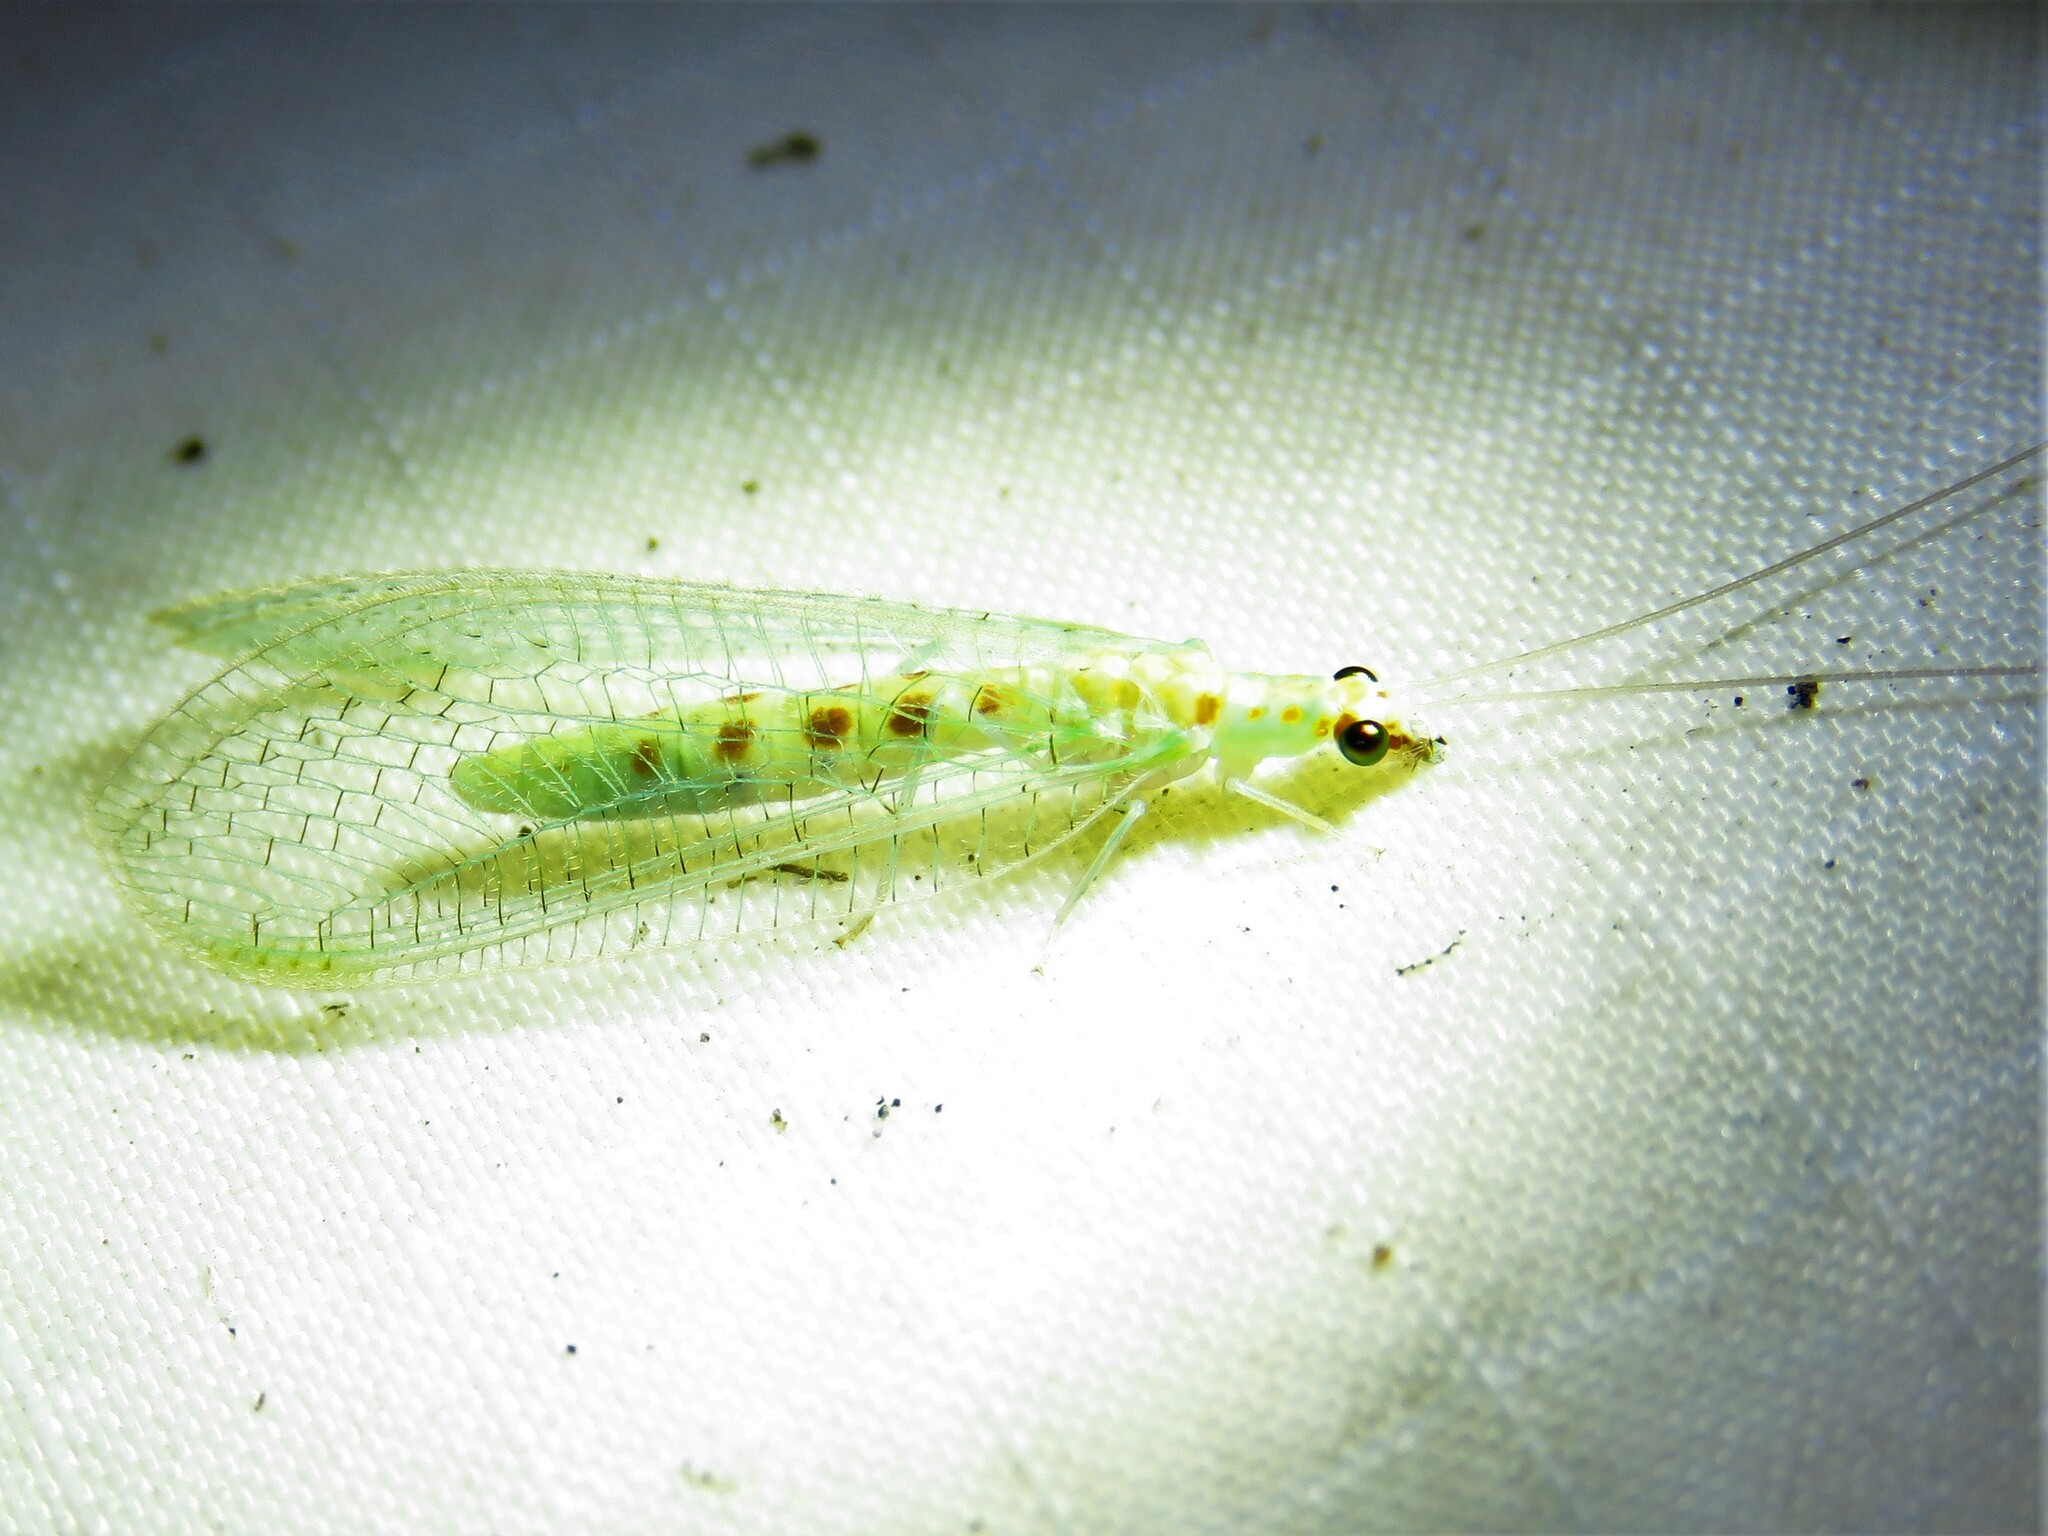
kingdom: Animalia
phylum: Arthropoda
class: Insecta
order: Neuroptera
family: Chrysopidae
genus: Chrysopa
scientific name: Chrysopa quadripunctata
